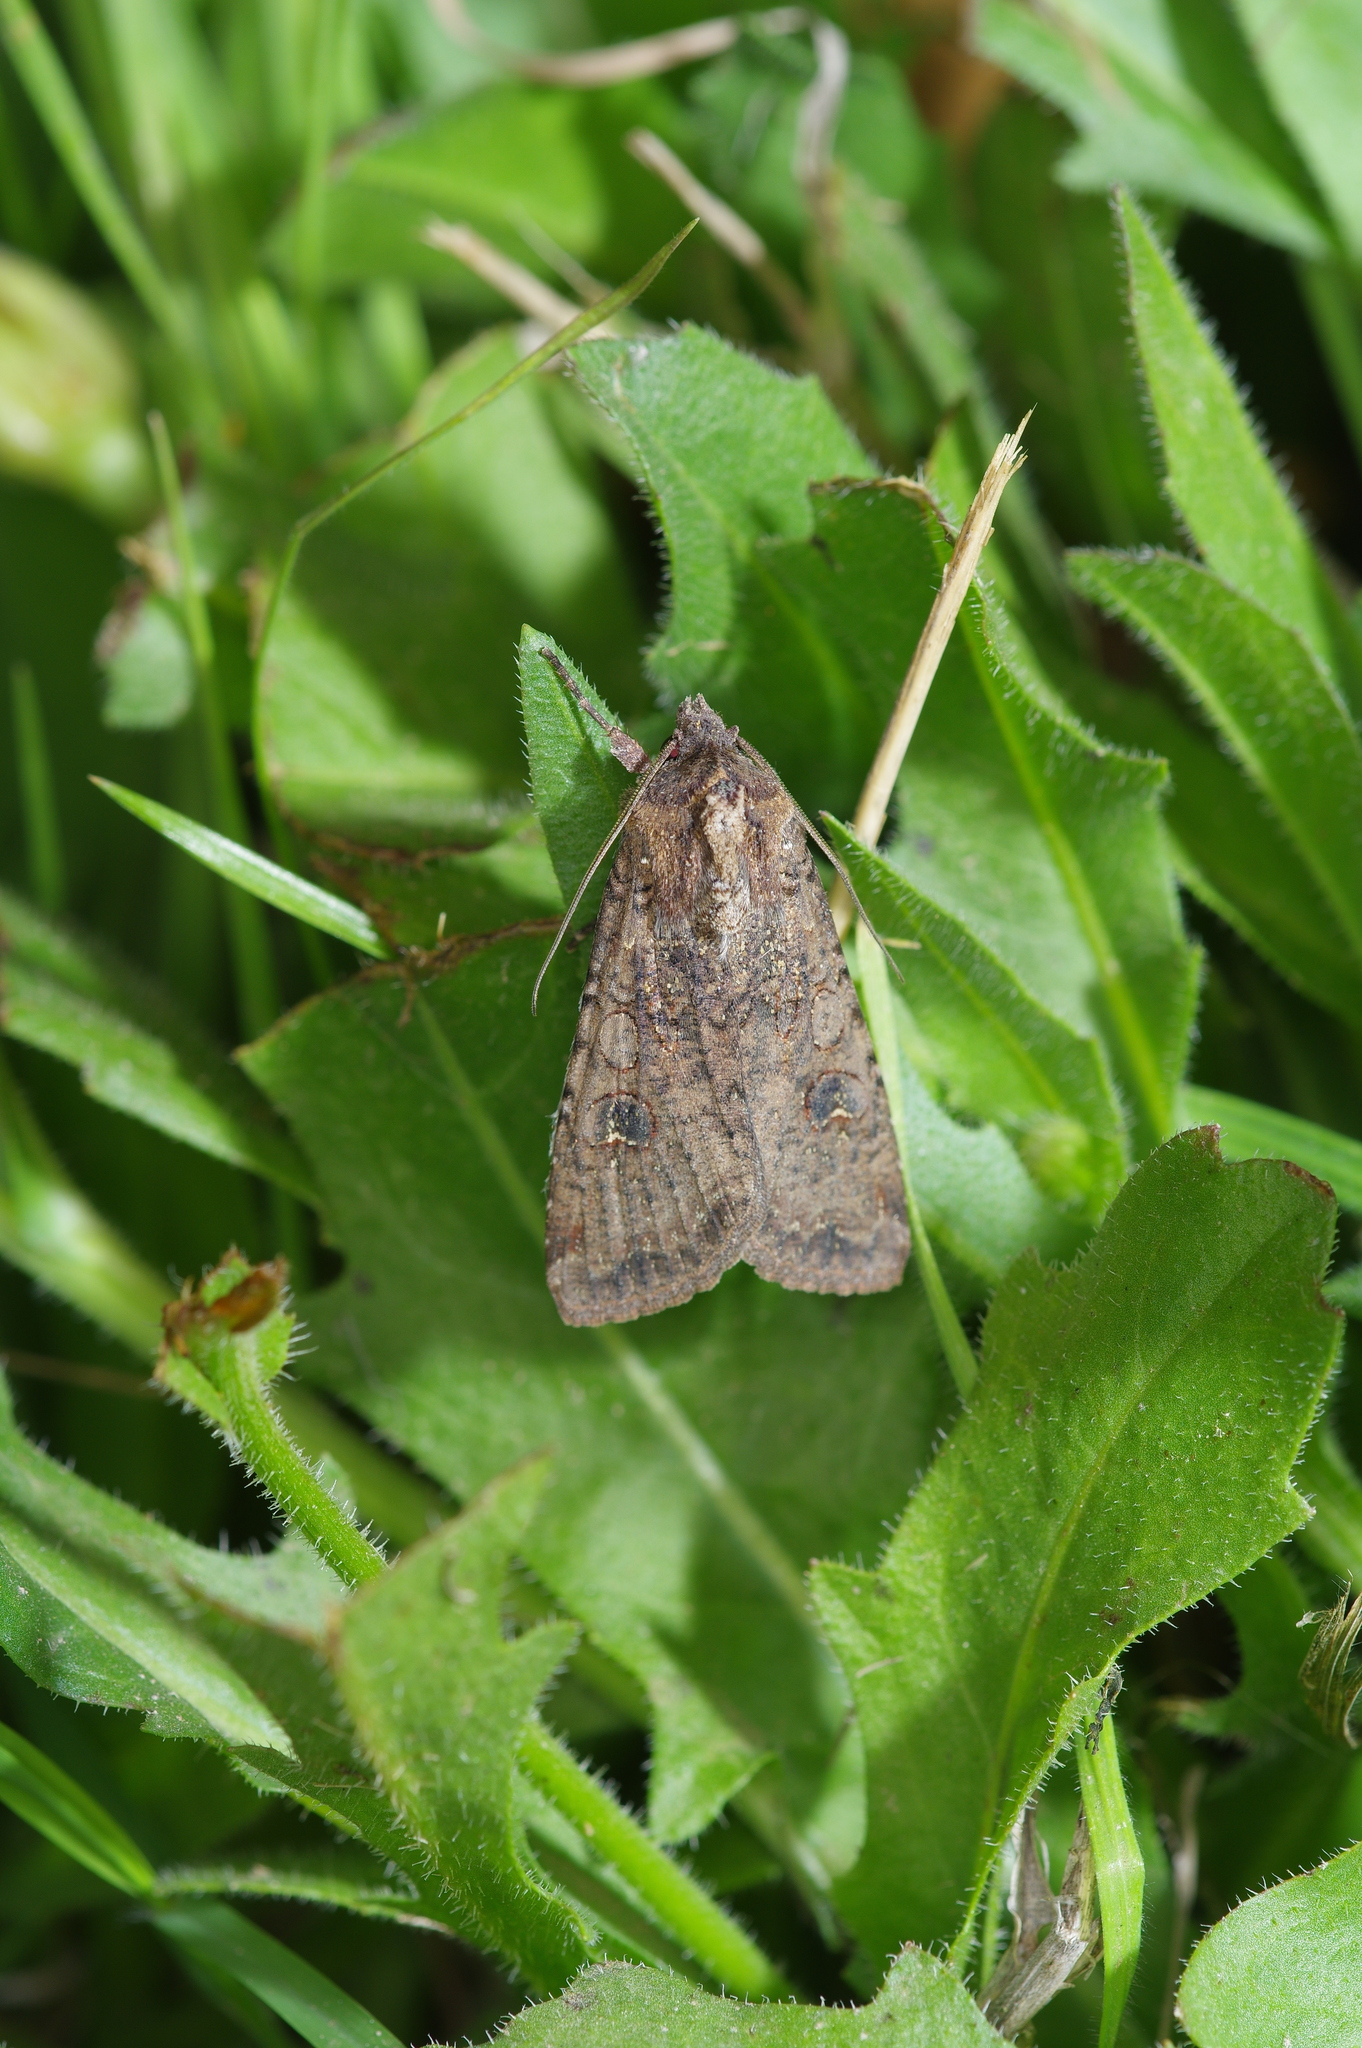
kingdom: Animalia
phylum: Arthropoda
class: Insecta
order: Lepidoptera
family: Noctuidae
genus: Peridroma
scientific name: Peridroma saucia
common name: Pearly underwing
